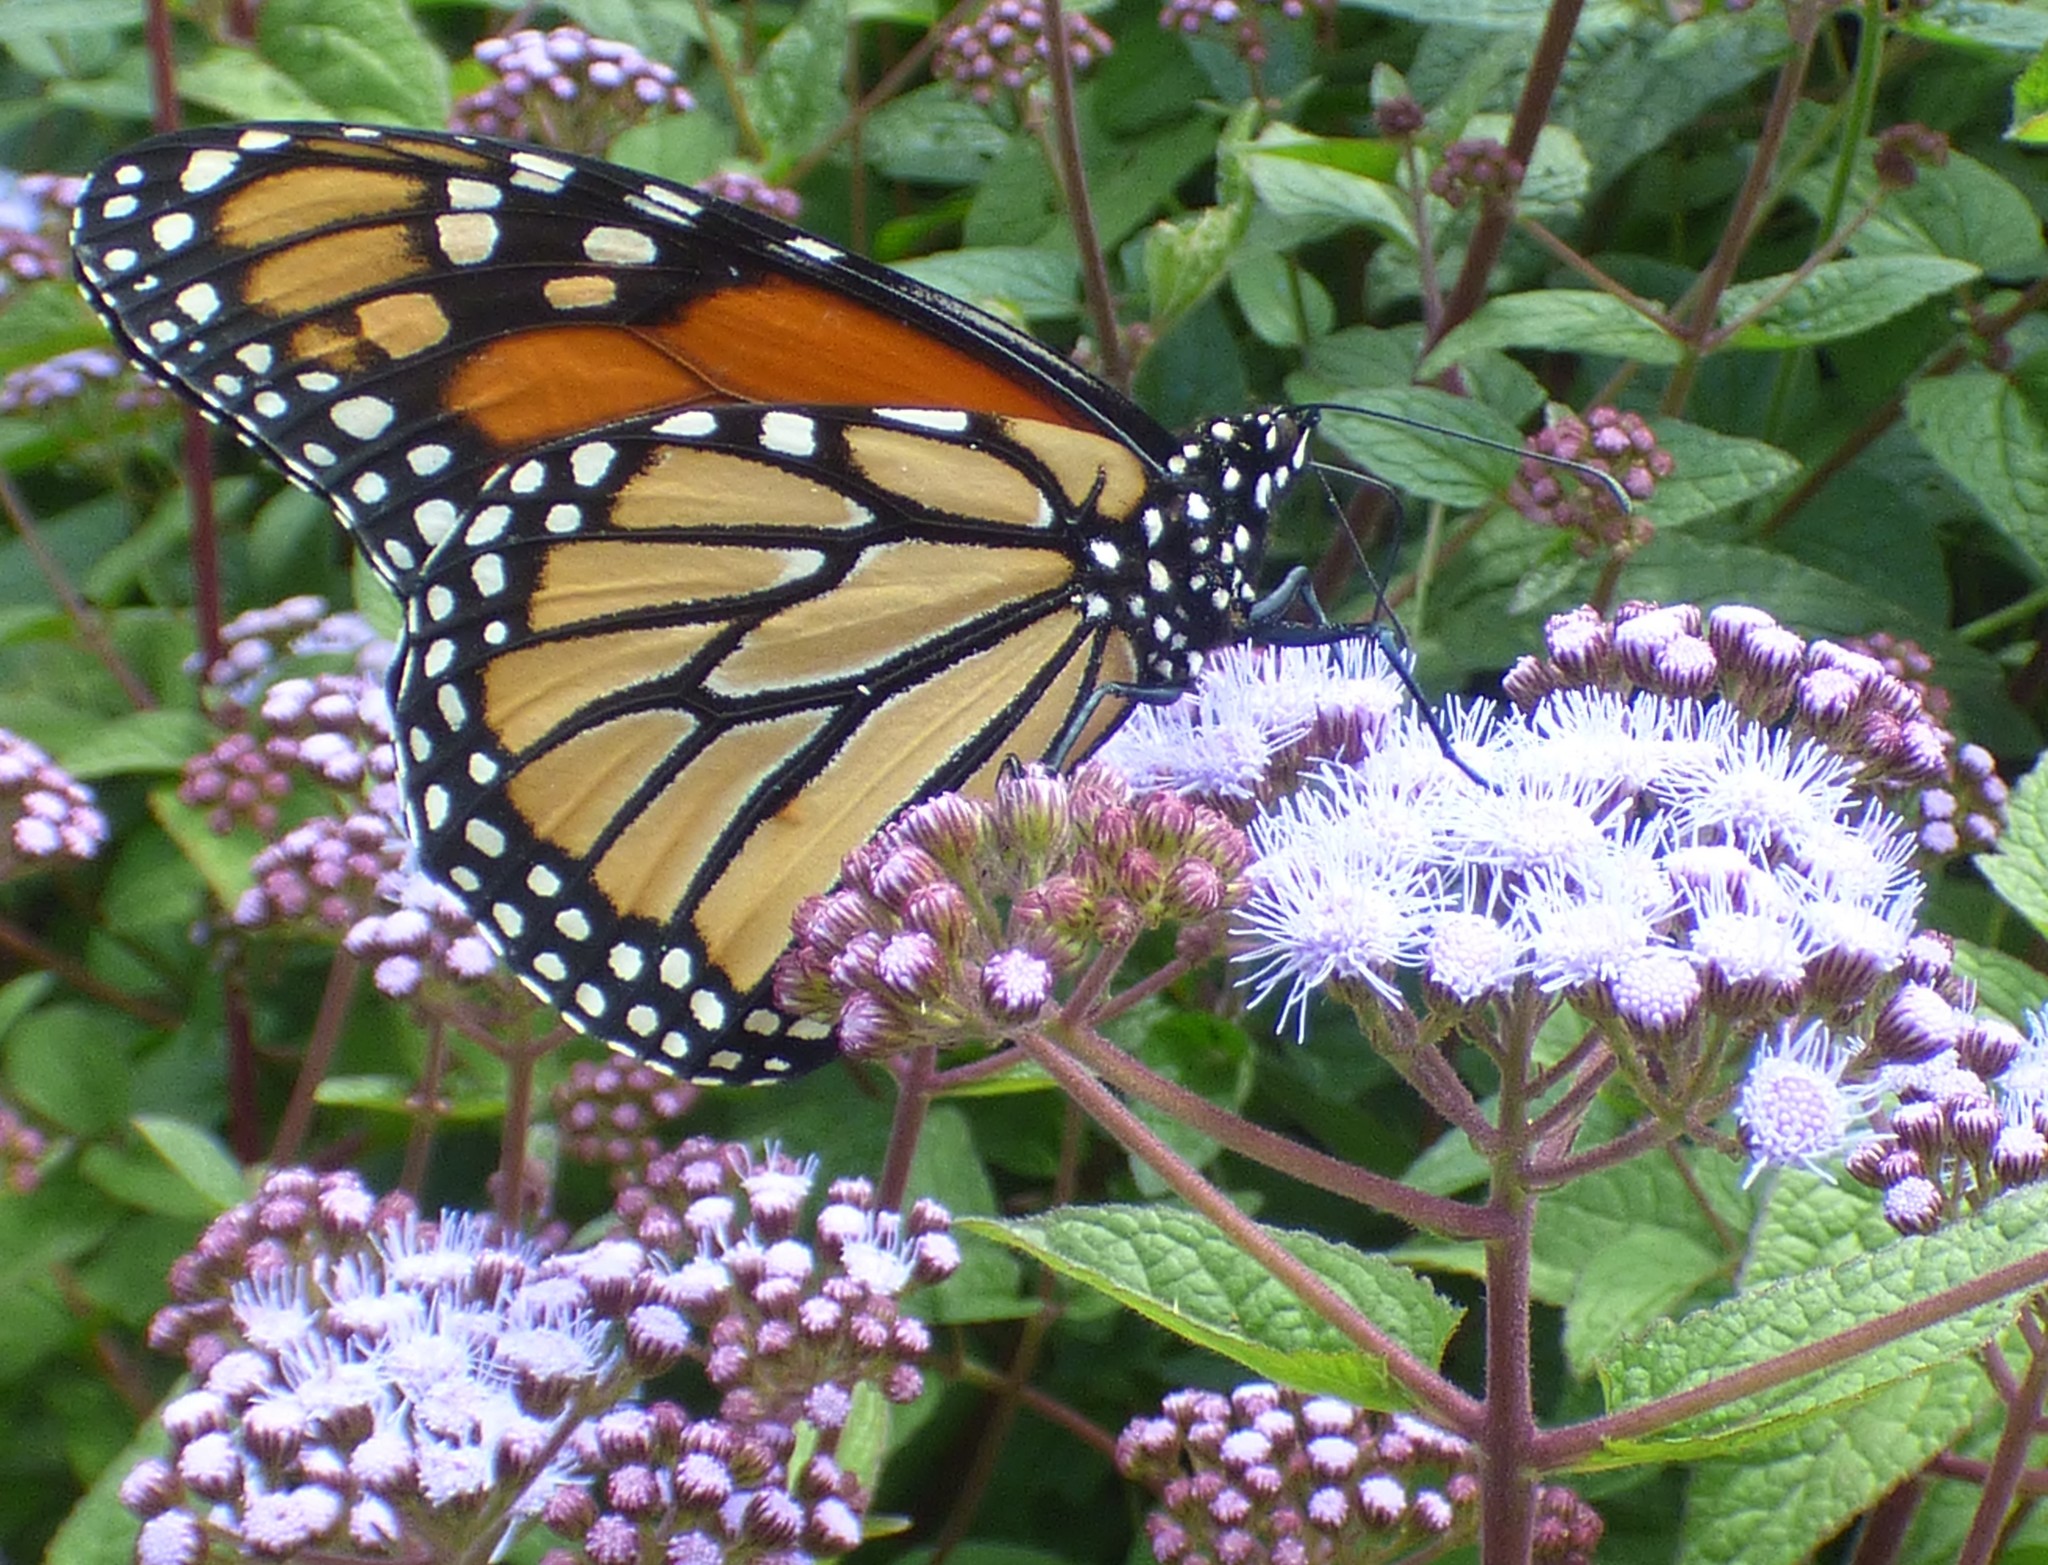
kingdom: Animalia
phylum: Arthropoda
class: Insecta
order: Lepidoptera
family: Nymphalidae
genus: Danaus
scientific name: Danaus plexippus
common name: Monarch
